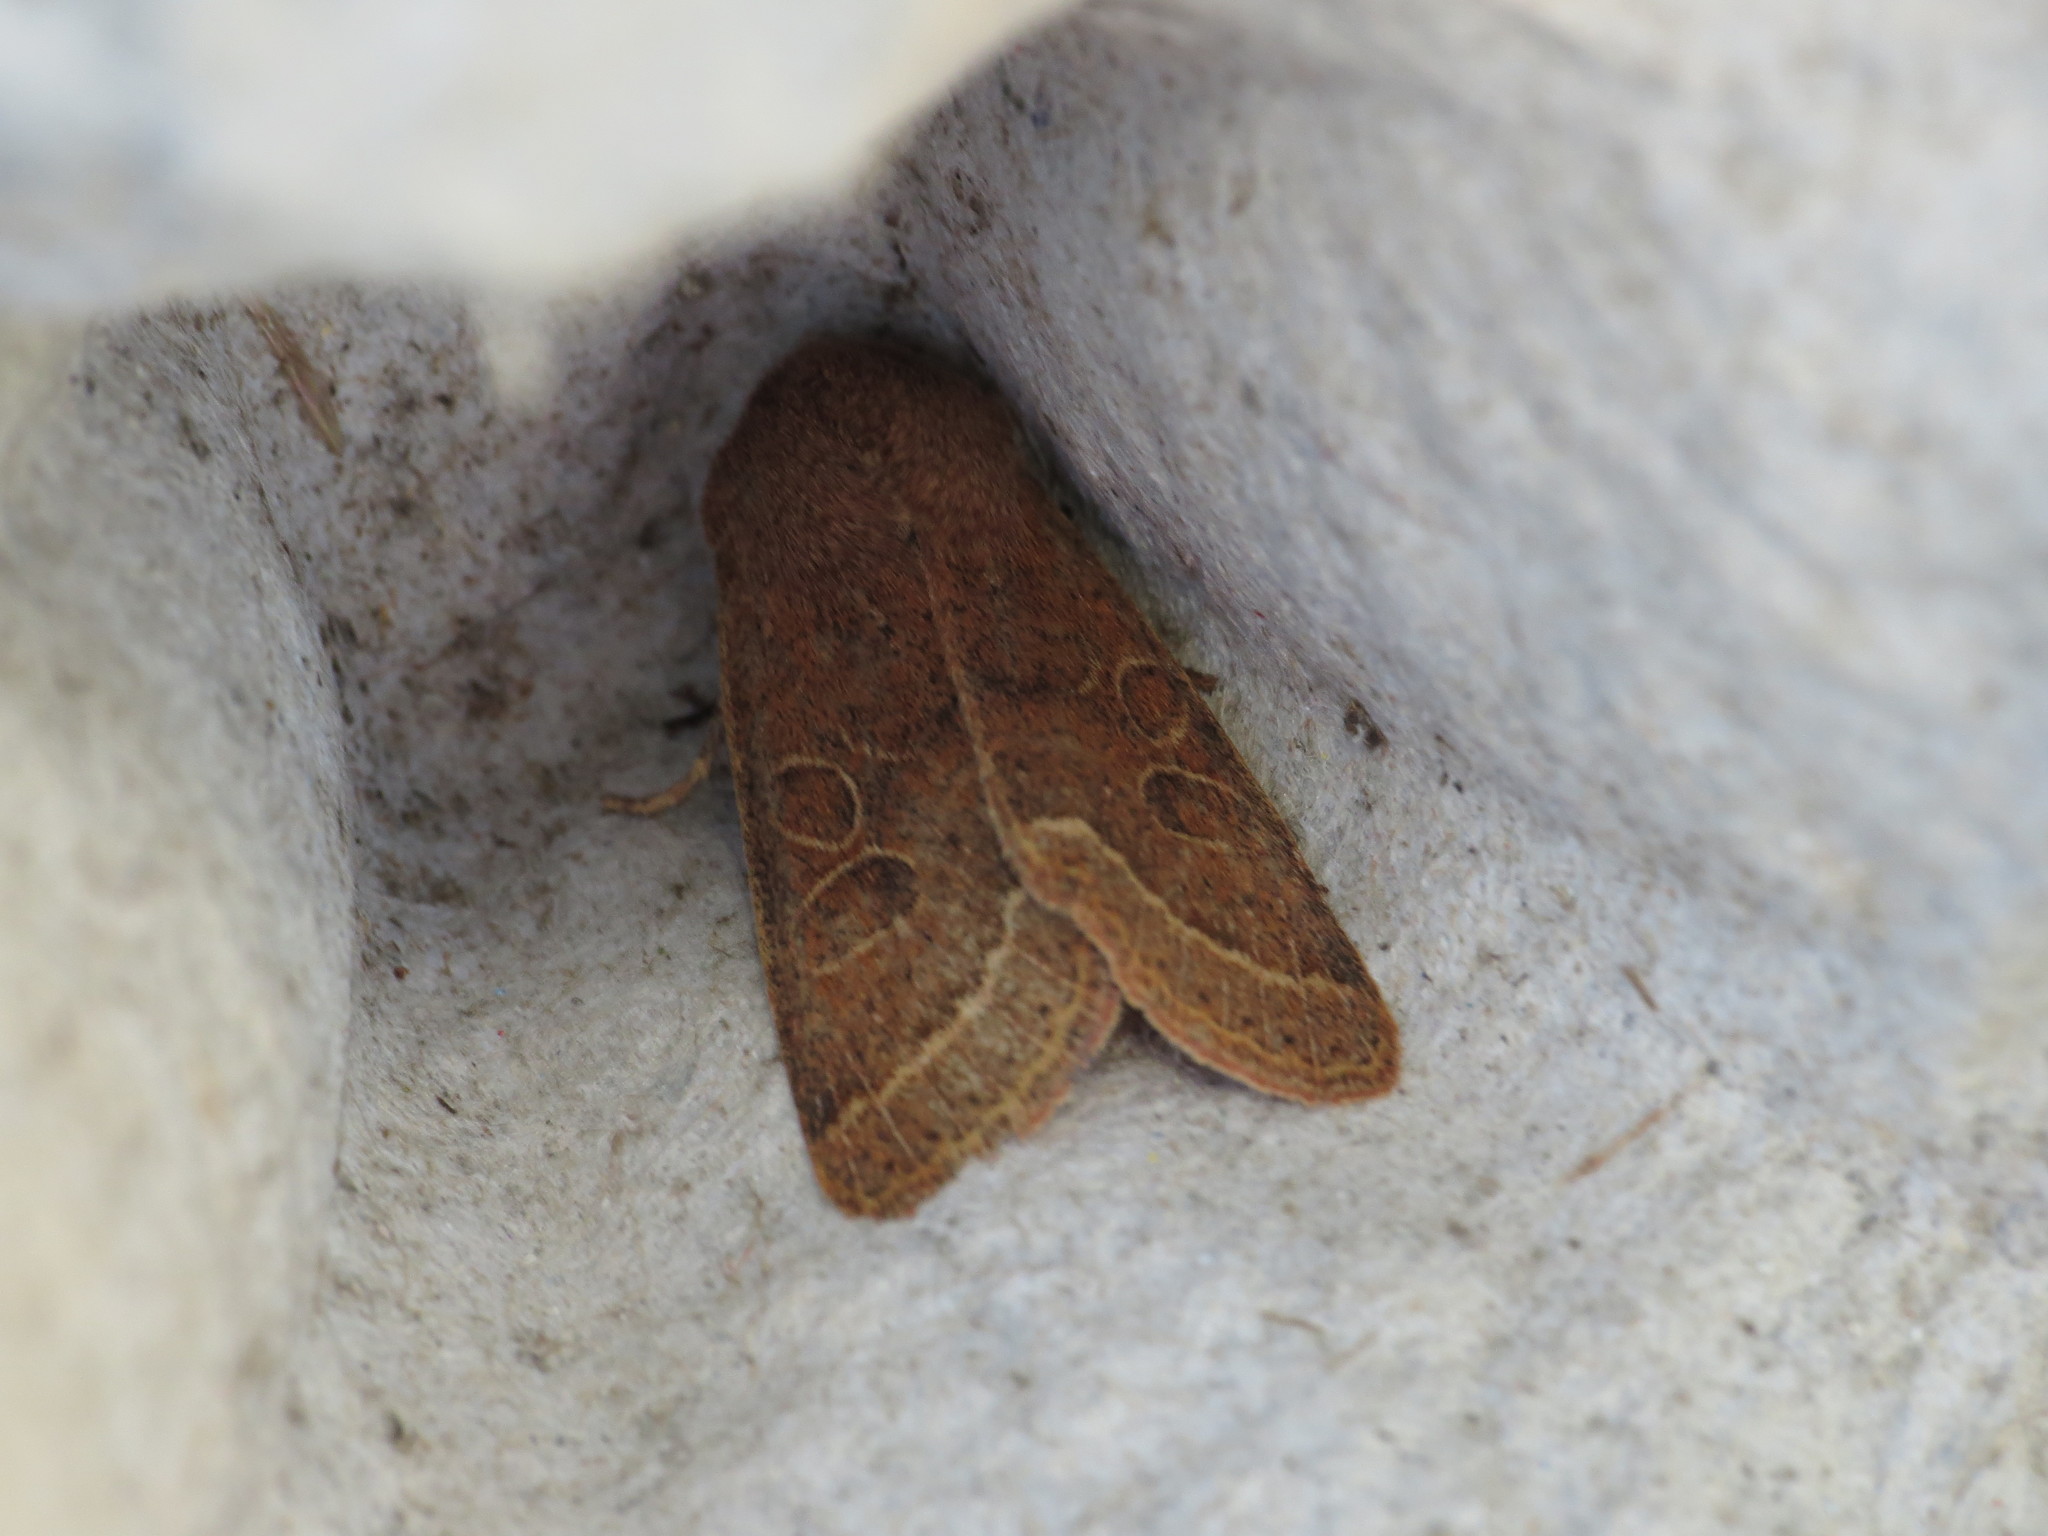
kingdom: Animalia
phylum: Arthropoda
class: Insecta
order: Lepidoptera
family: Noctuidae
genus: Orthosia
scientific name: Orthosia cerasi
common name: Common quaker
